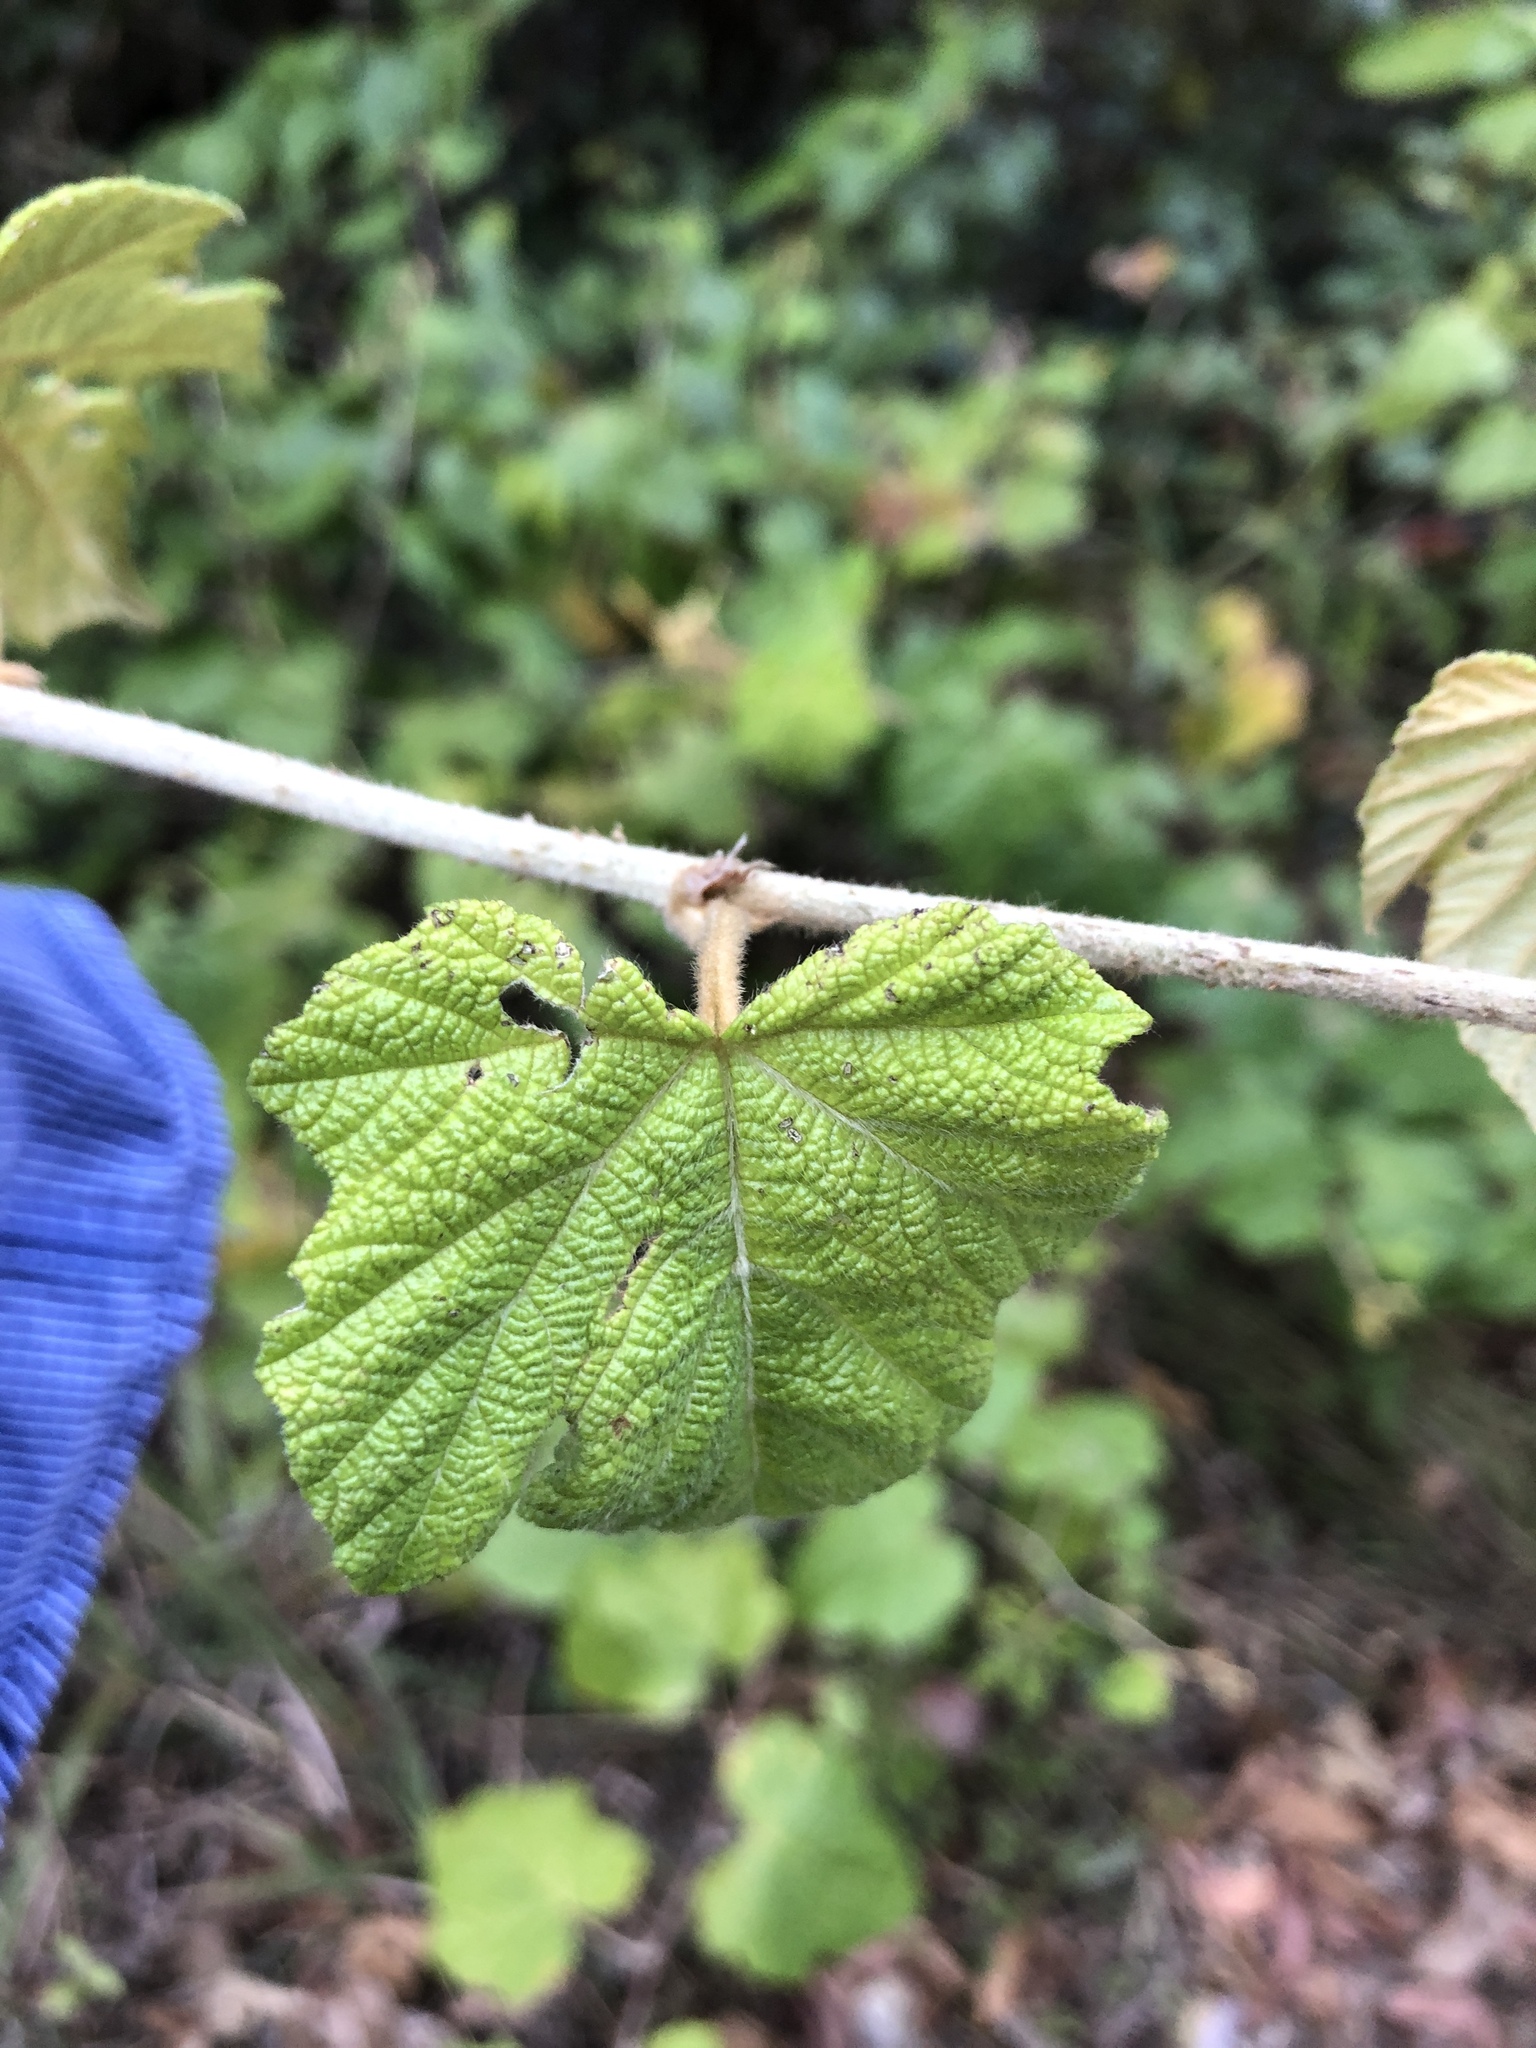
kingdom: Plantae
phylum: Tracheophyta
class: Magnoliopsida
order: Rosales
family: Rosaceae
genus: Rubus
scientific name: Rubus moluccanus
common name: Wild raspberry
